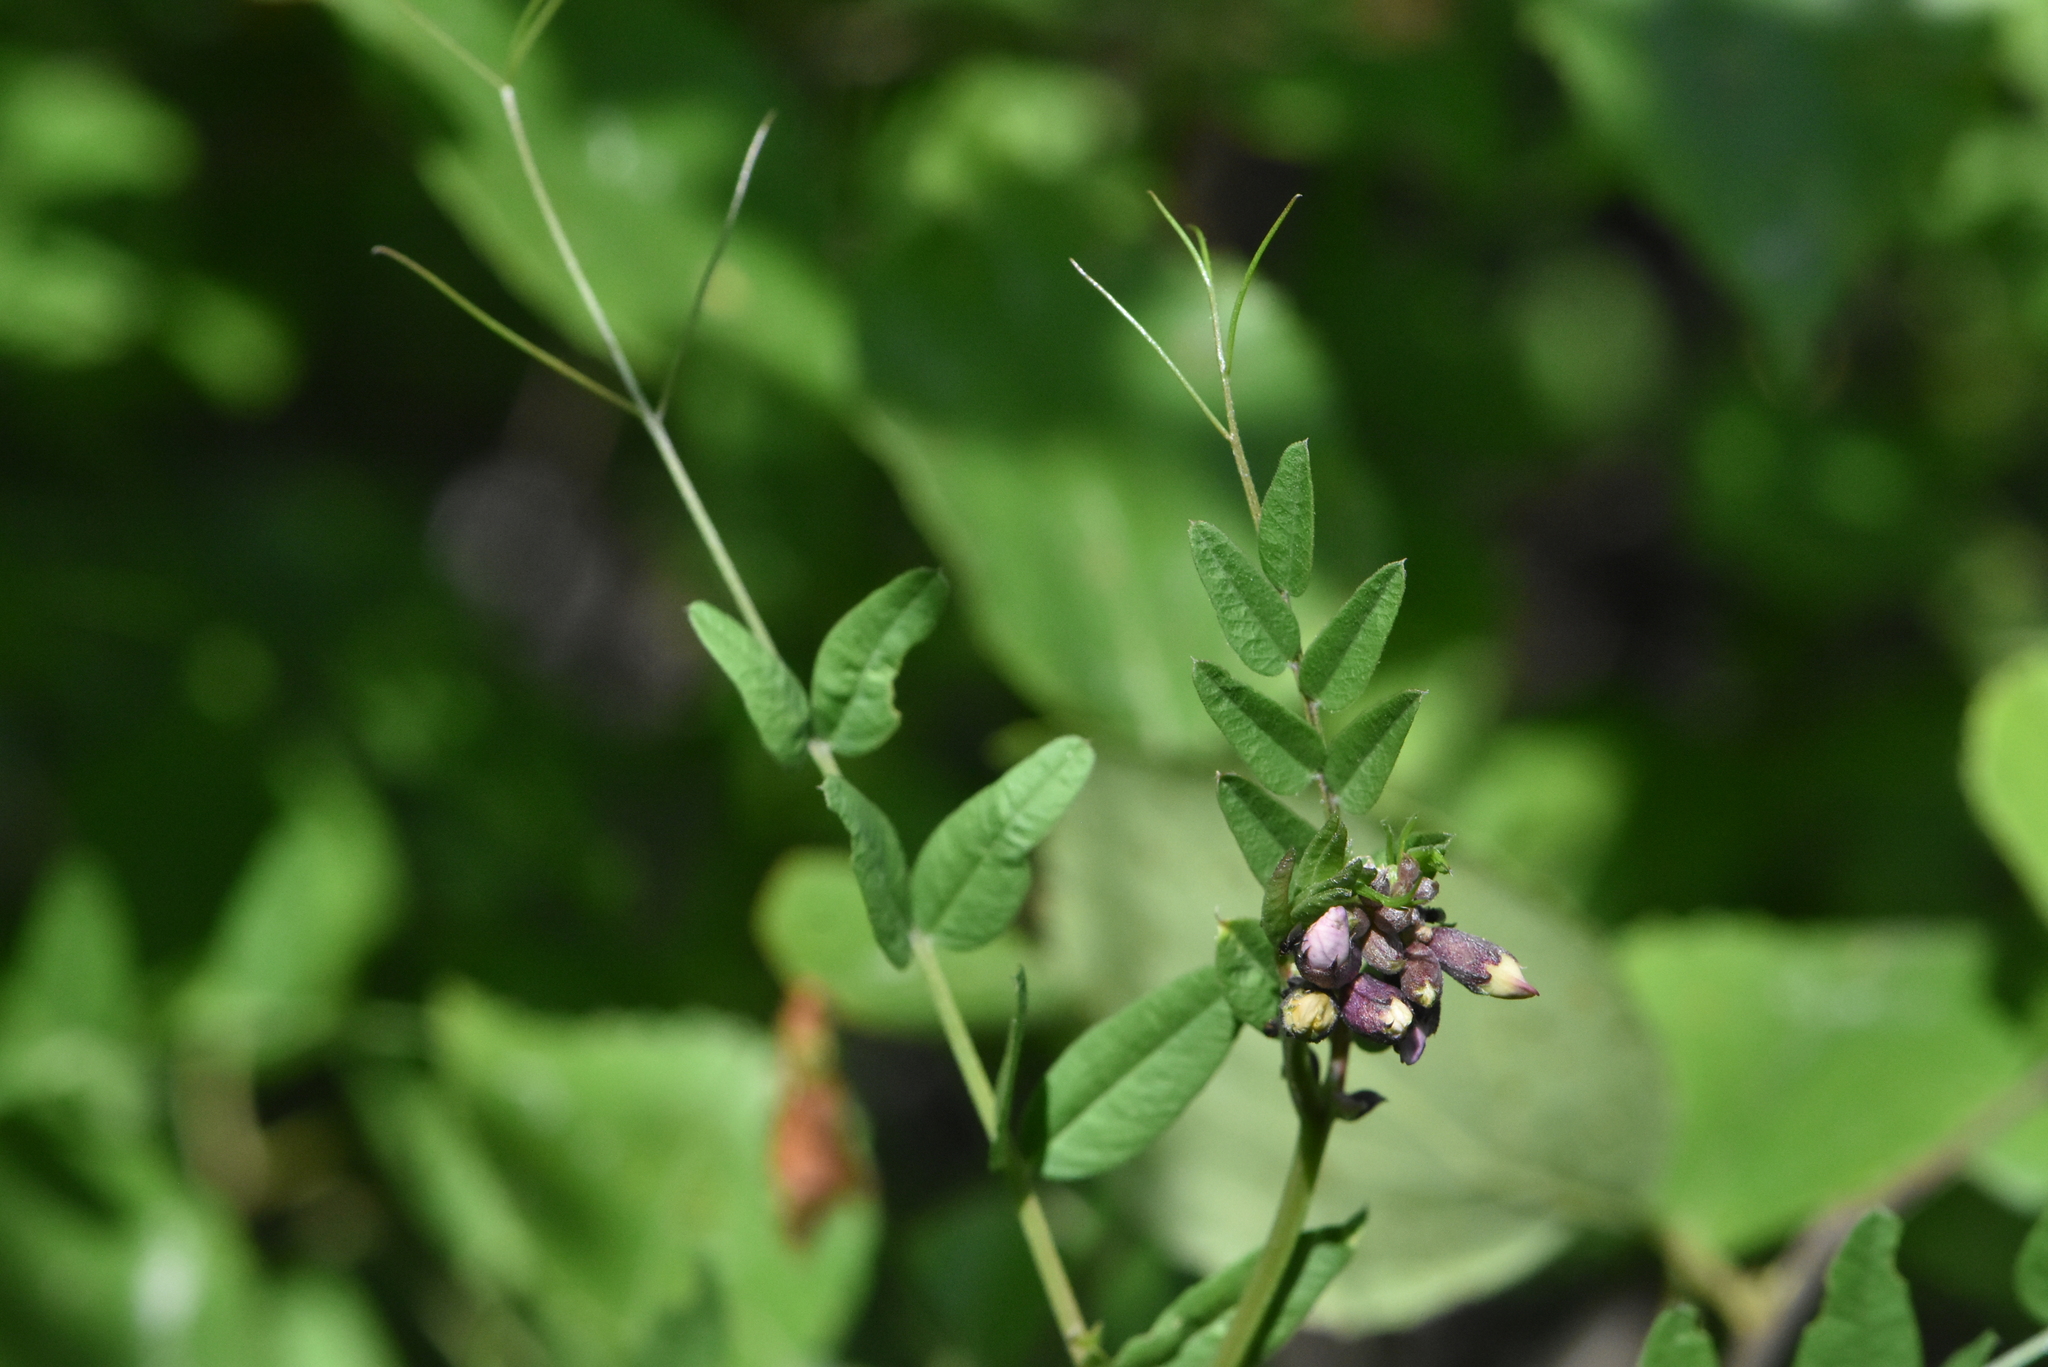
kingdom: Plantae
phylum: Tracheophyta
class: Magnoliopsida
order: Fabales
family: Fabaceae
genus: Vicia
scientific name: Vicia sepium
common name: Bush vetch
